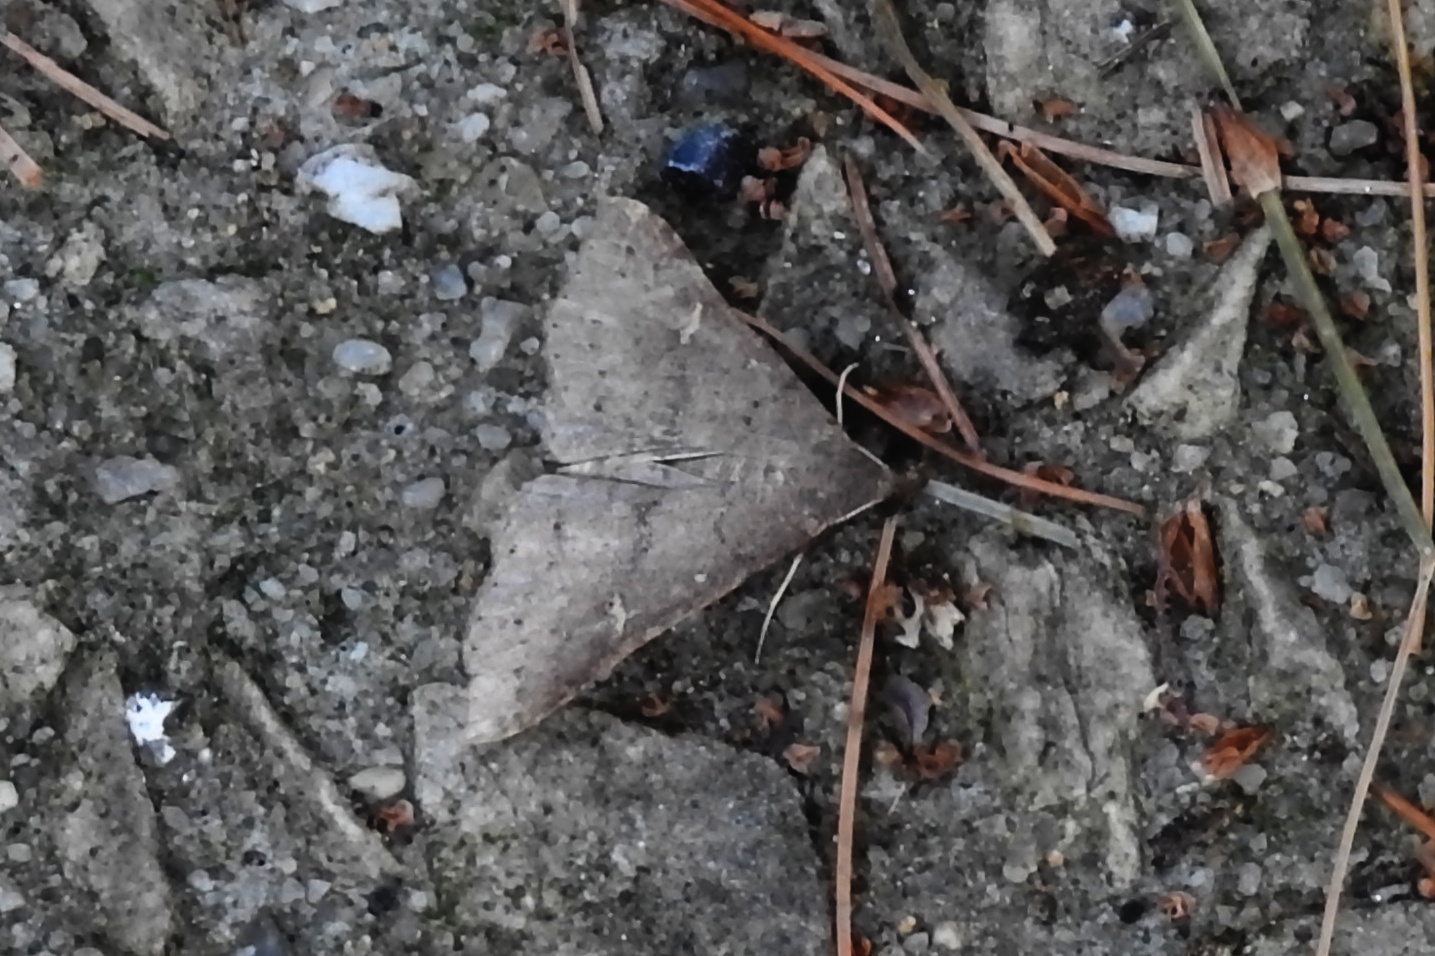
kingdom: Animalia
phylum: Arthropoda
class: Insecta
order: Lepidoptera
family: Erebidae
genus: Renia
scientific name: Renia adspergillus
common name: Speckled renia moth
